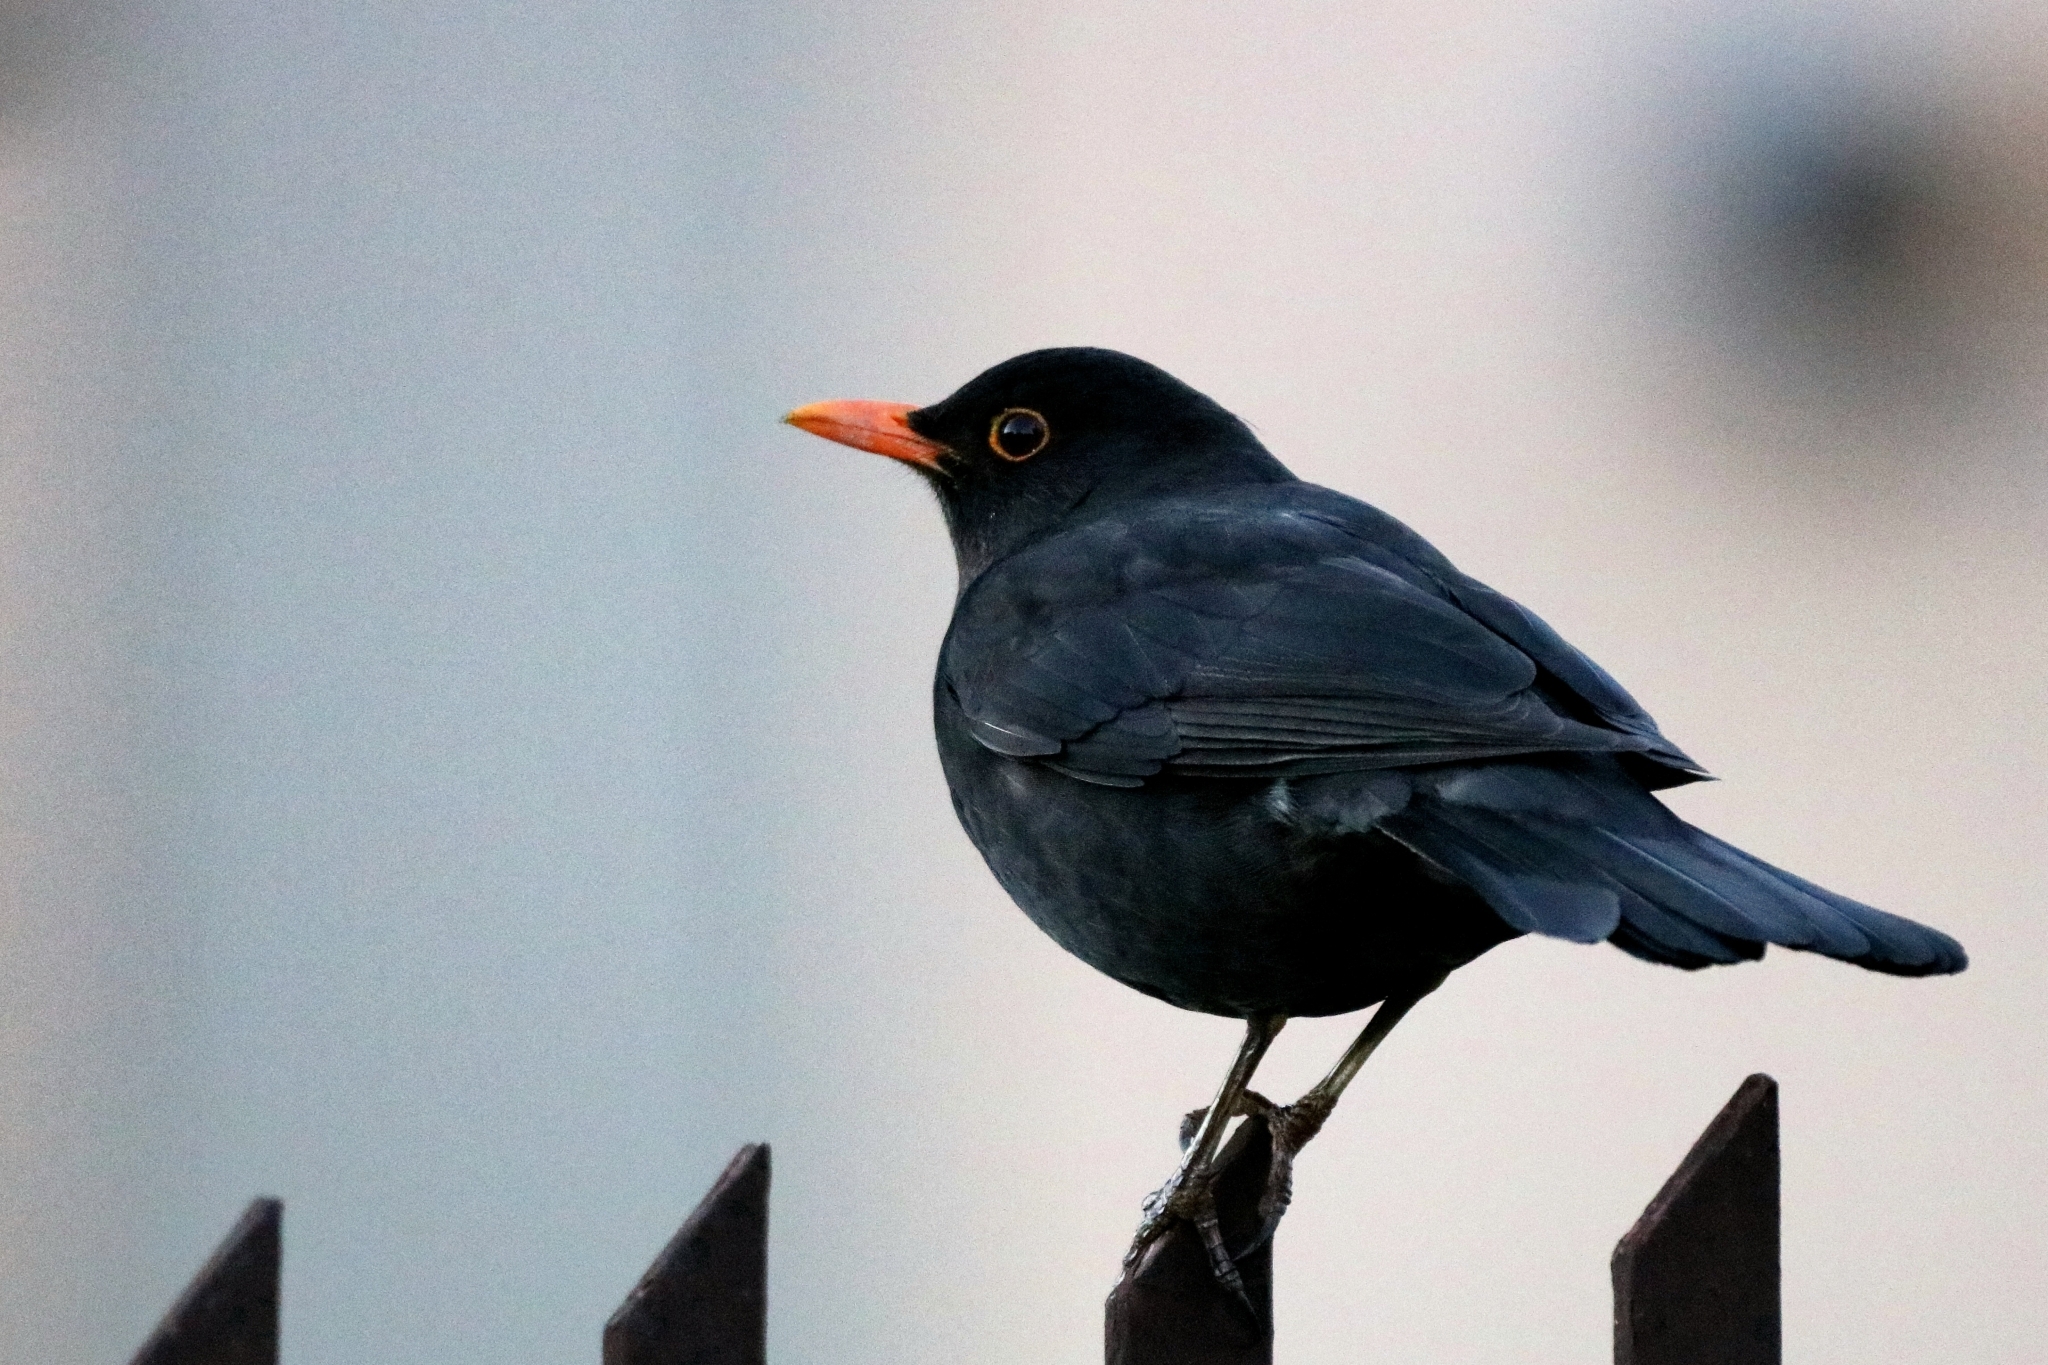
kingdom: Animalia
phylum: Chordata
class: Aves
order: Passeriformes
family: Turdidae
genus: Turdus
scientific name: Turdus merula
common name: Common blackbird
